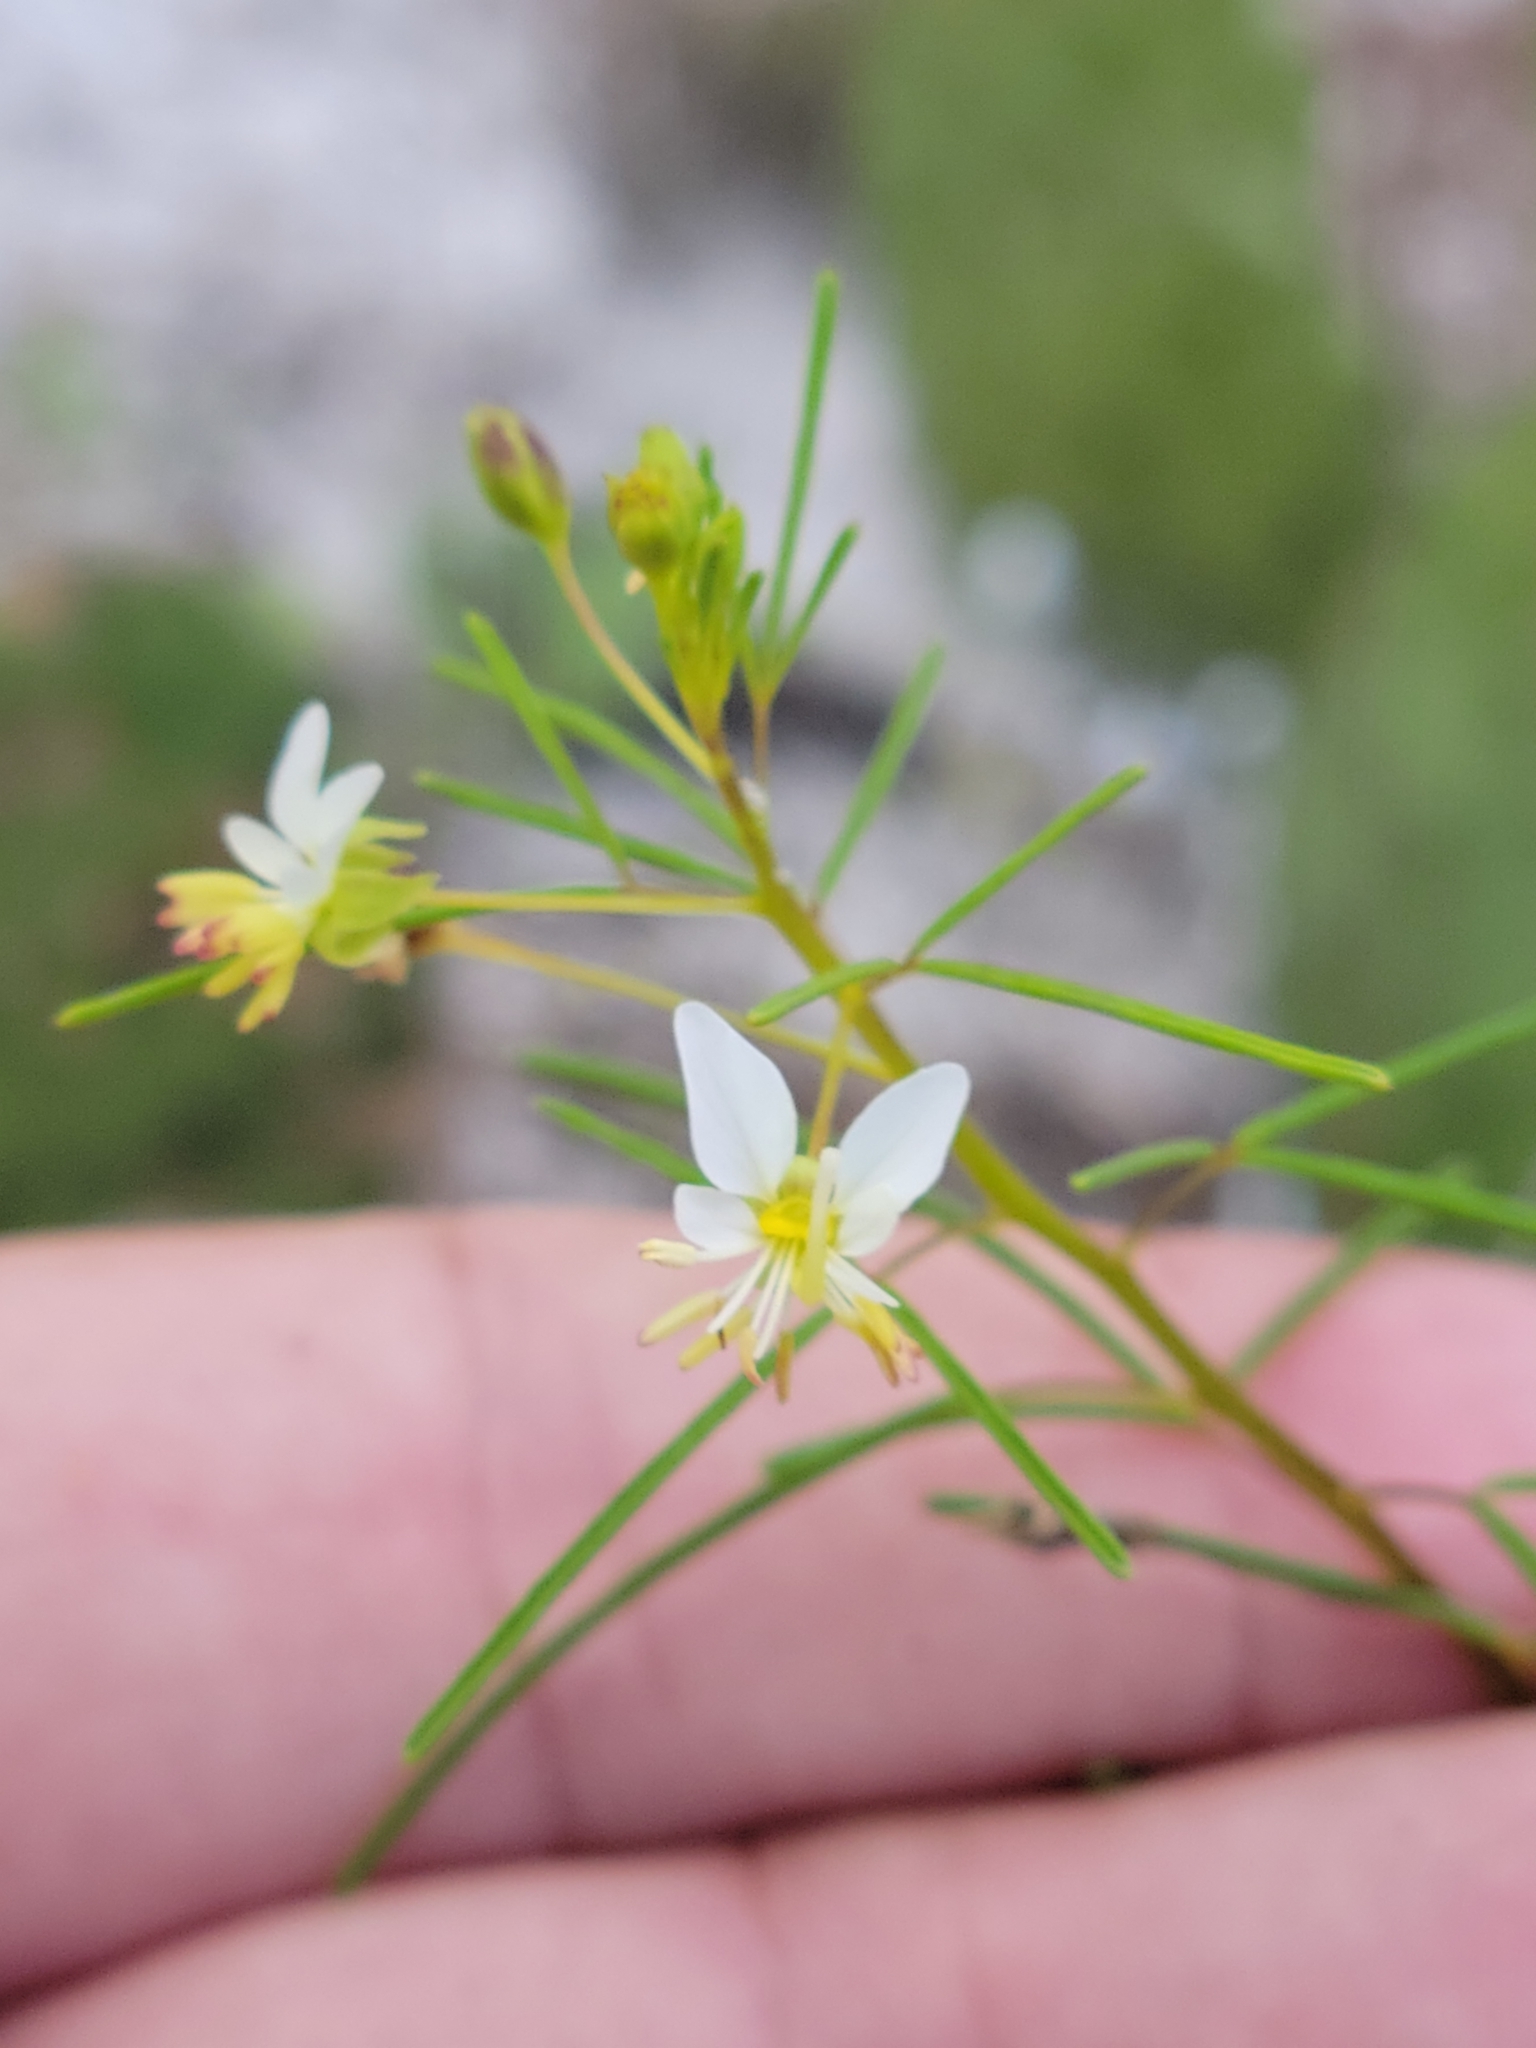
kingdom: Plantae
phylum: Tracheophyta
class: Magnoliopsida
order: Brassicales
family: Cleomaceae
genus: Polanisia
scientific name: Polanisia tenuifolia
